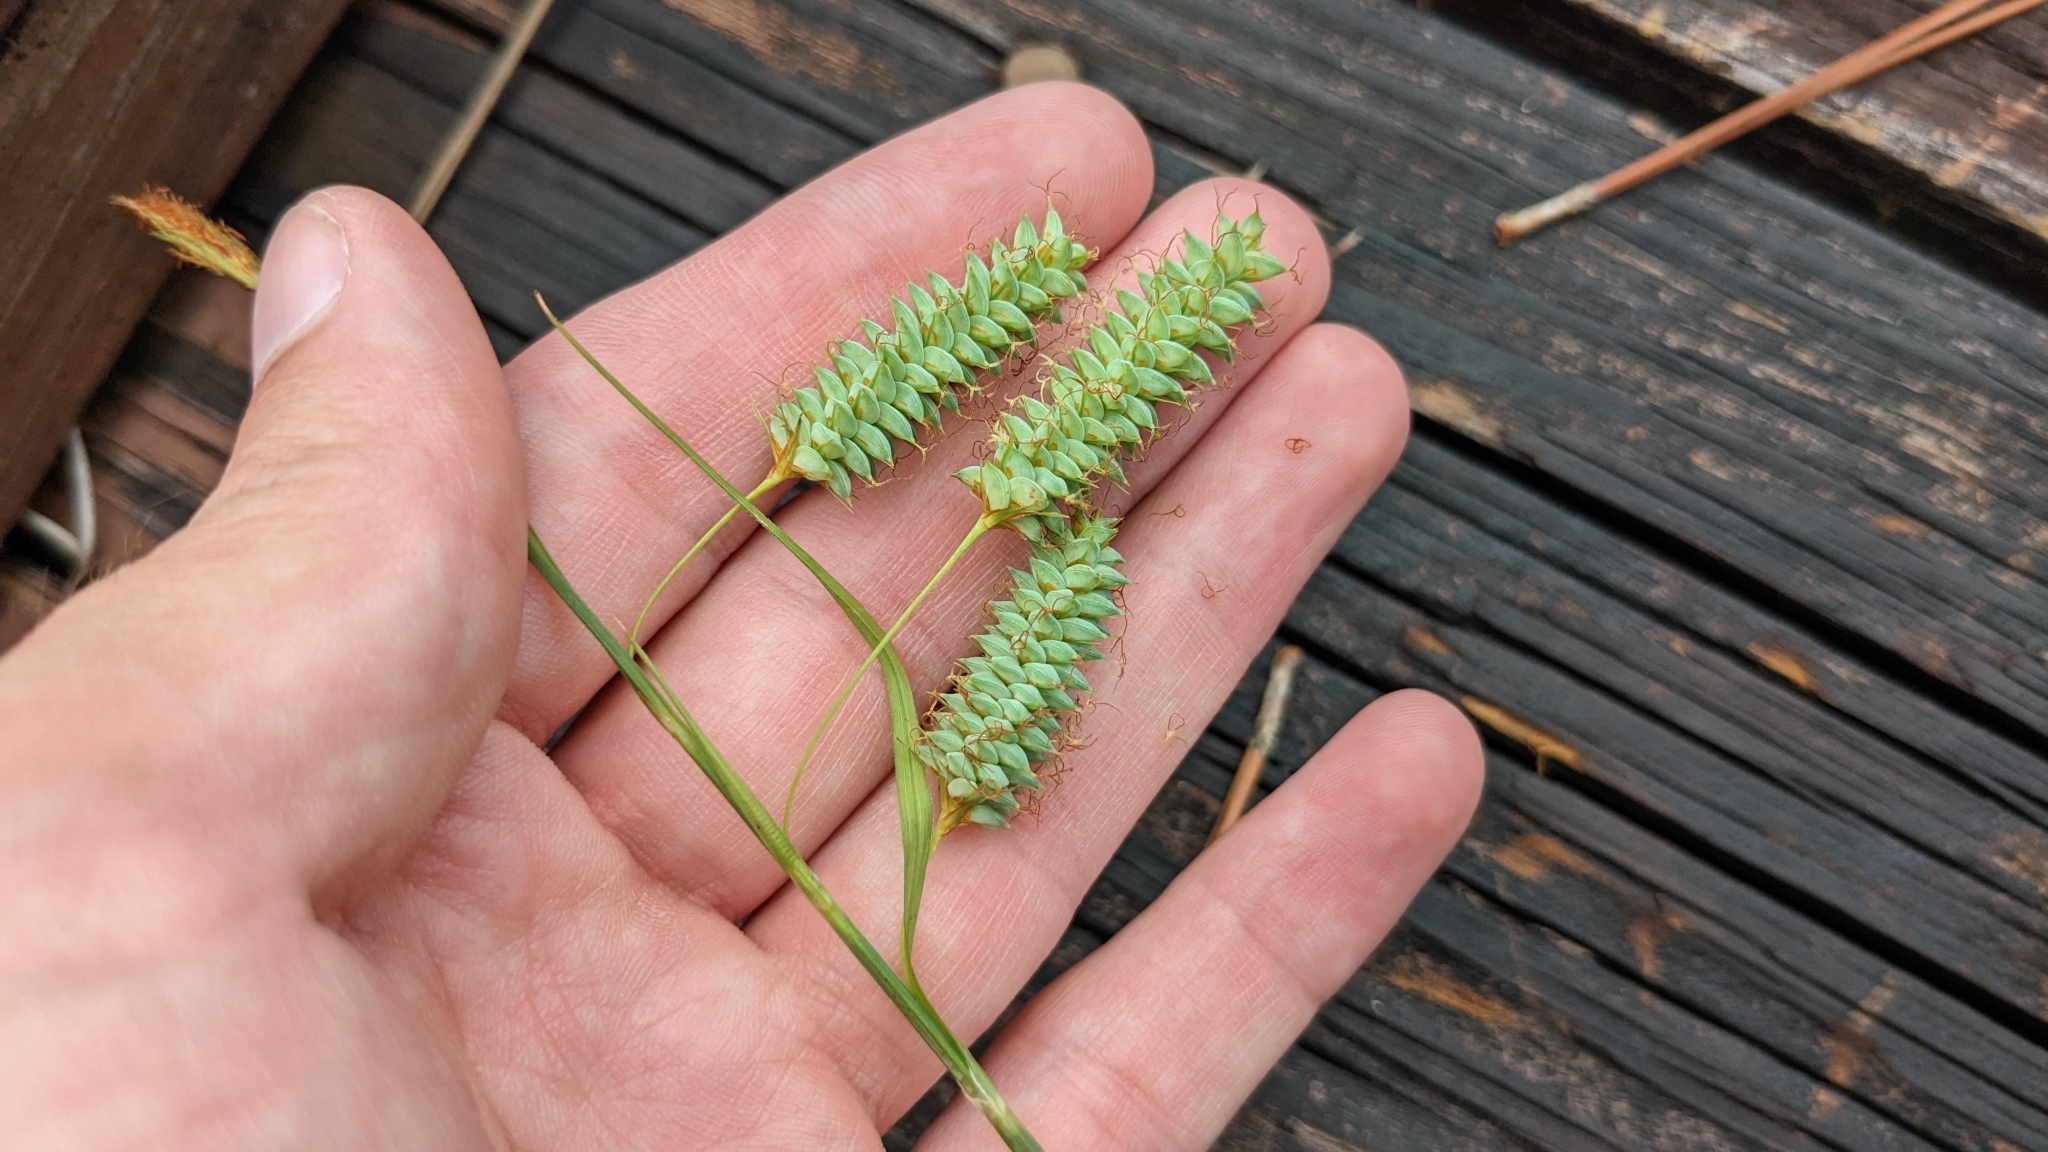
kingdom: Plantae
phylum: Tracheophyta
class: Liliopsida
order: Poales
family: Cyperaceae
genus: Carex
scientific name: Carex glaucescens
